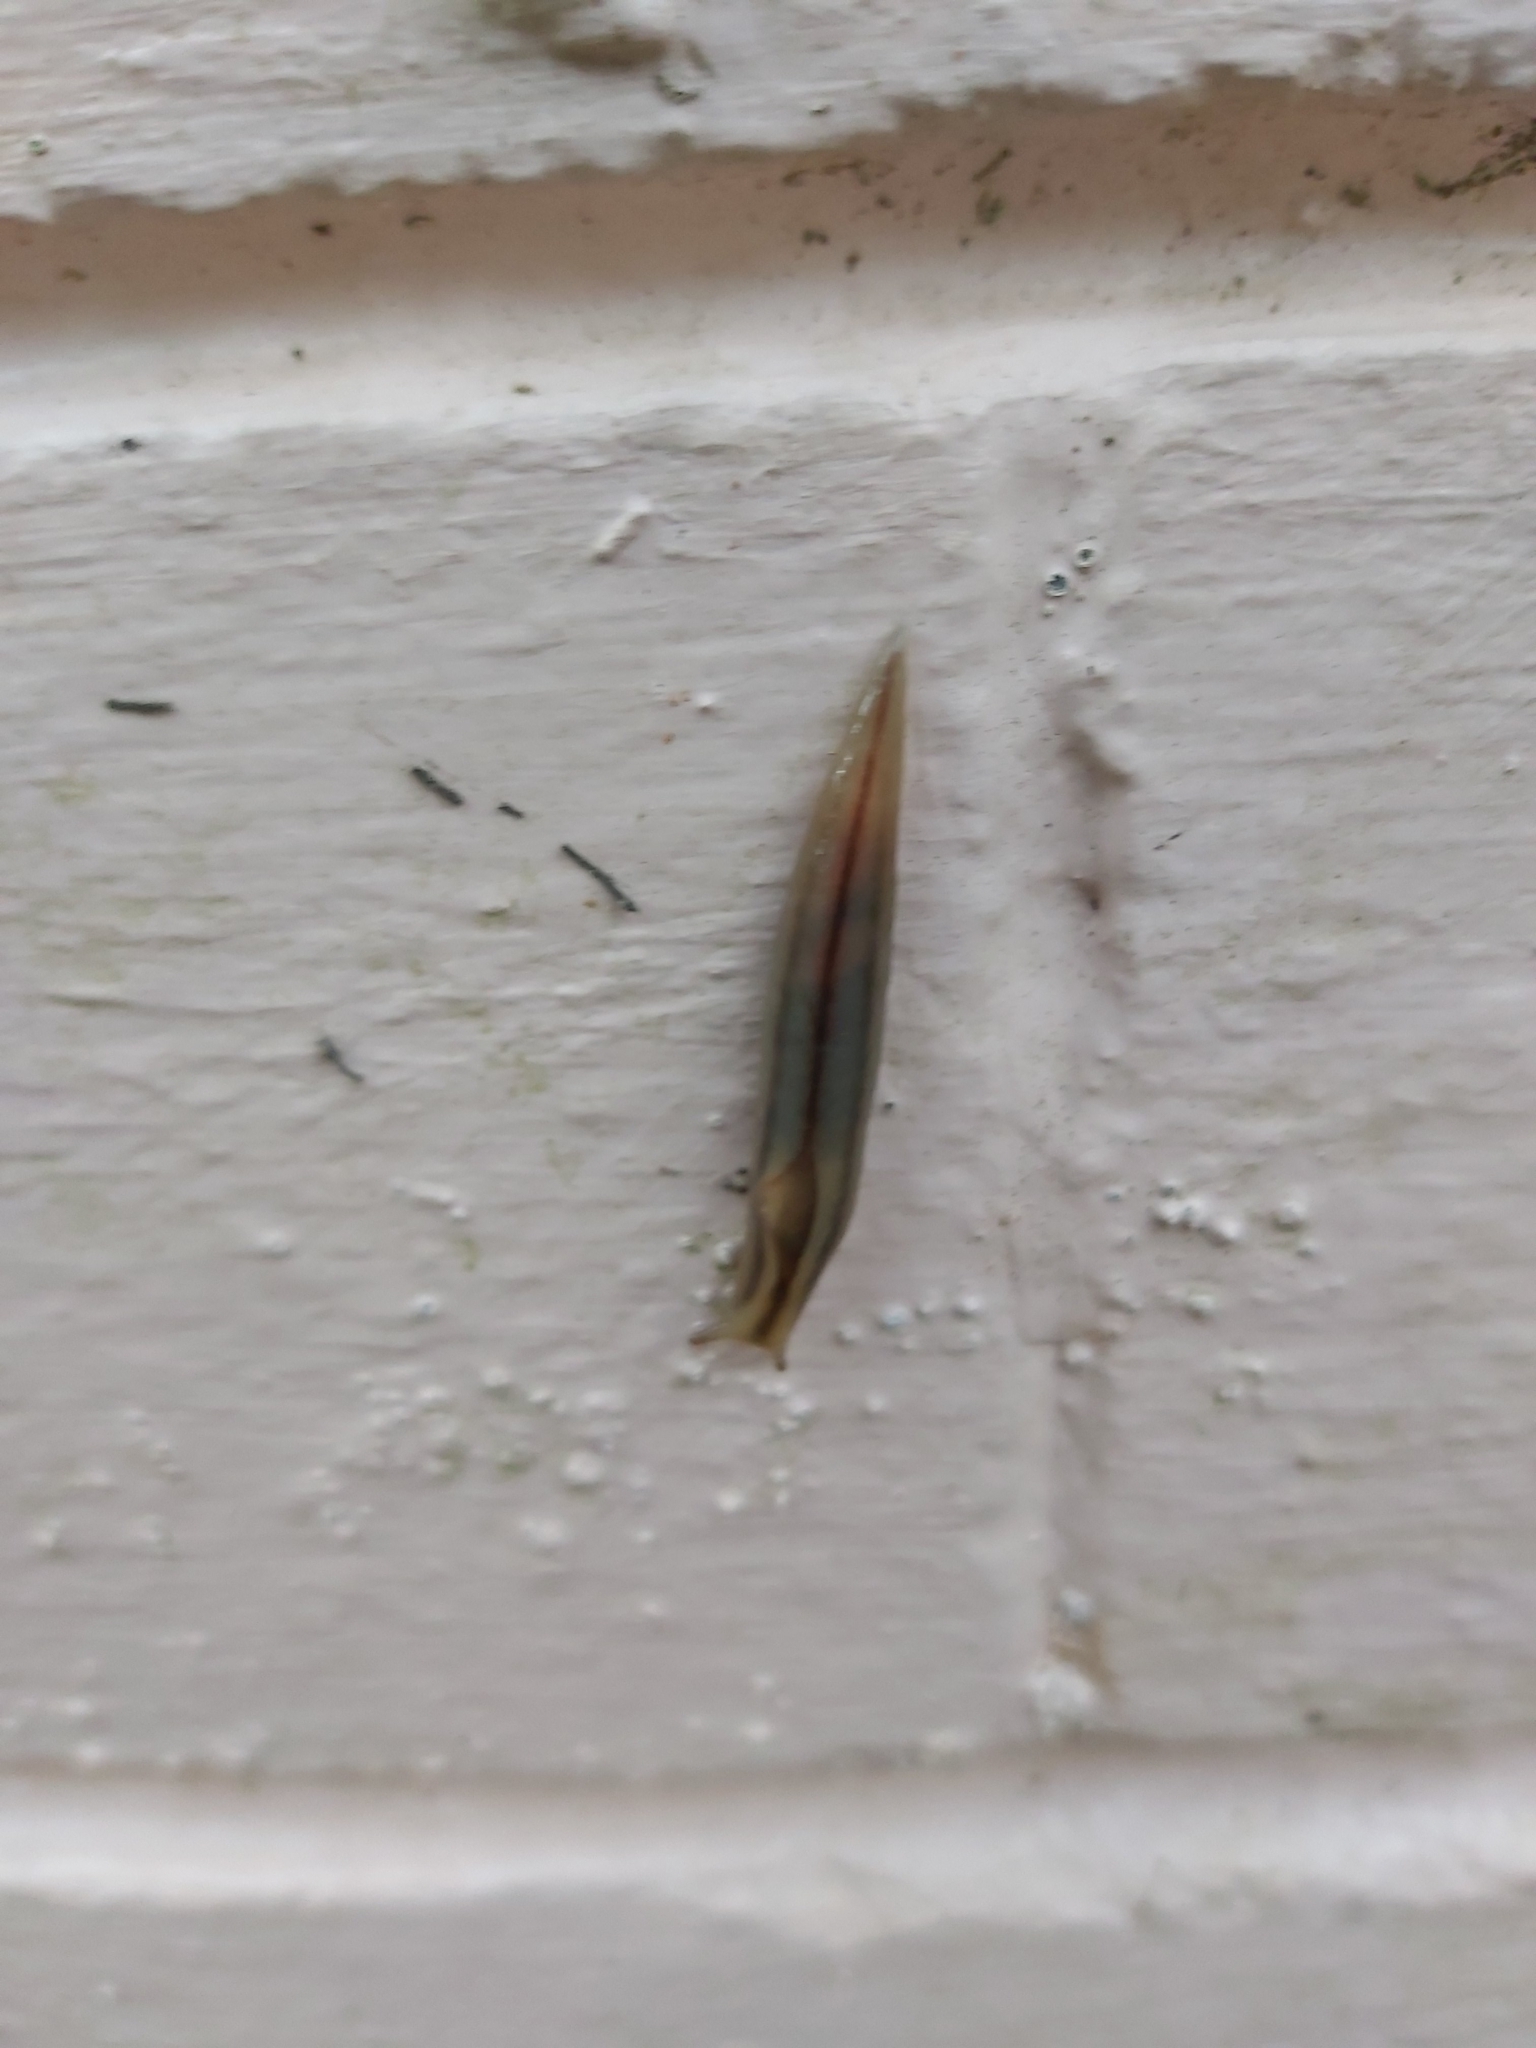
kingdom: Animalia
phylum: Mollusca
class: Gastropoda
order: Stylommatophora
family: Athoracophoridae
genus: Triboniophorus
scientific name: Triboniophorus graeffei
